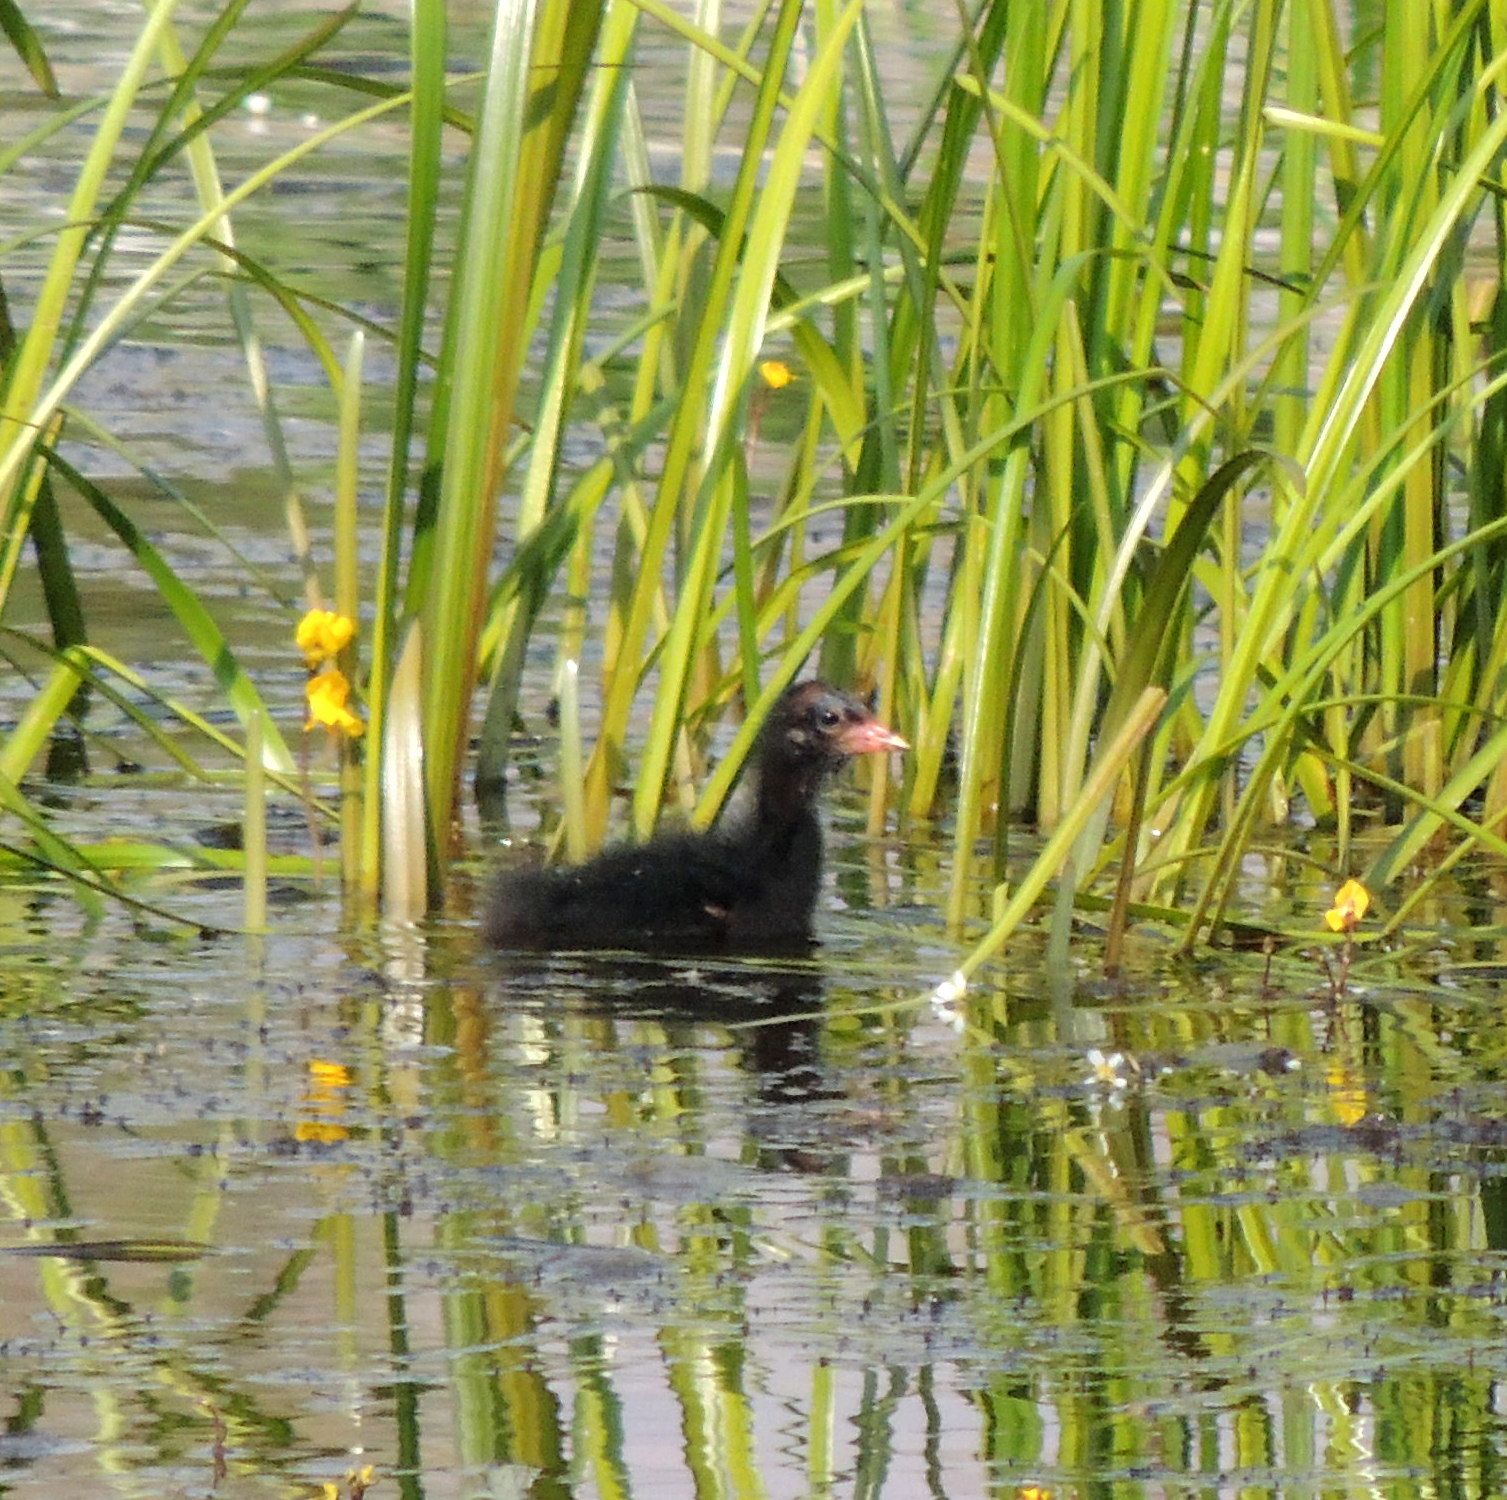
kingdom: Animalia
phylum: Chordata
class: Aves
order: Gruiformes
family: Rallidae
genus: Gallinula
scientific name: Gallinula chloropus
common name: Common moorhen
